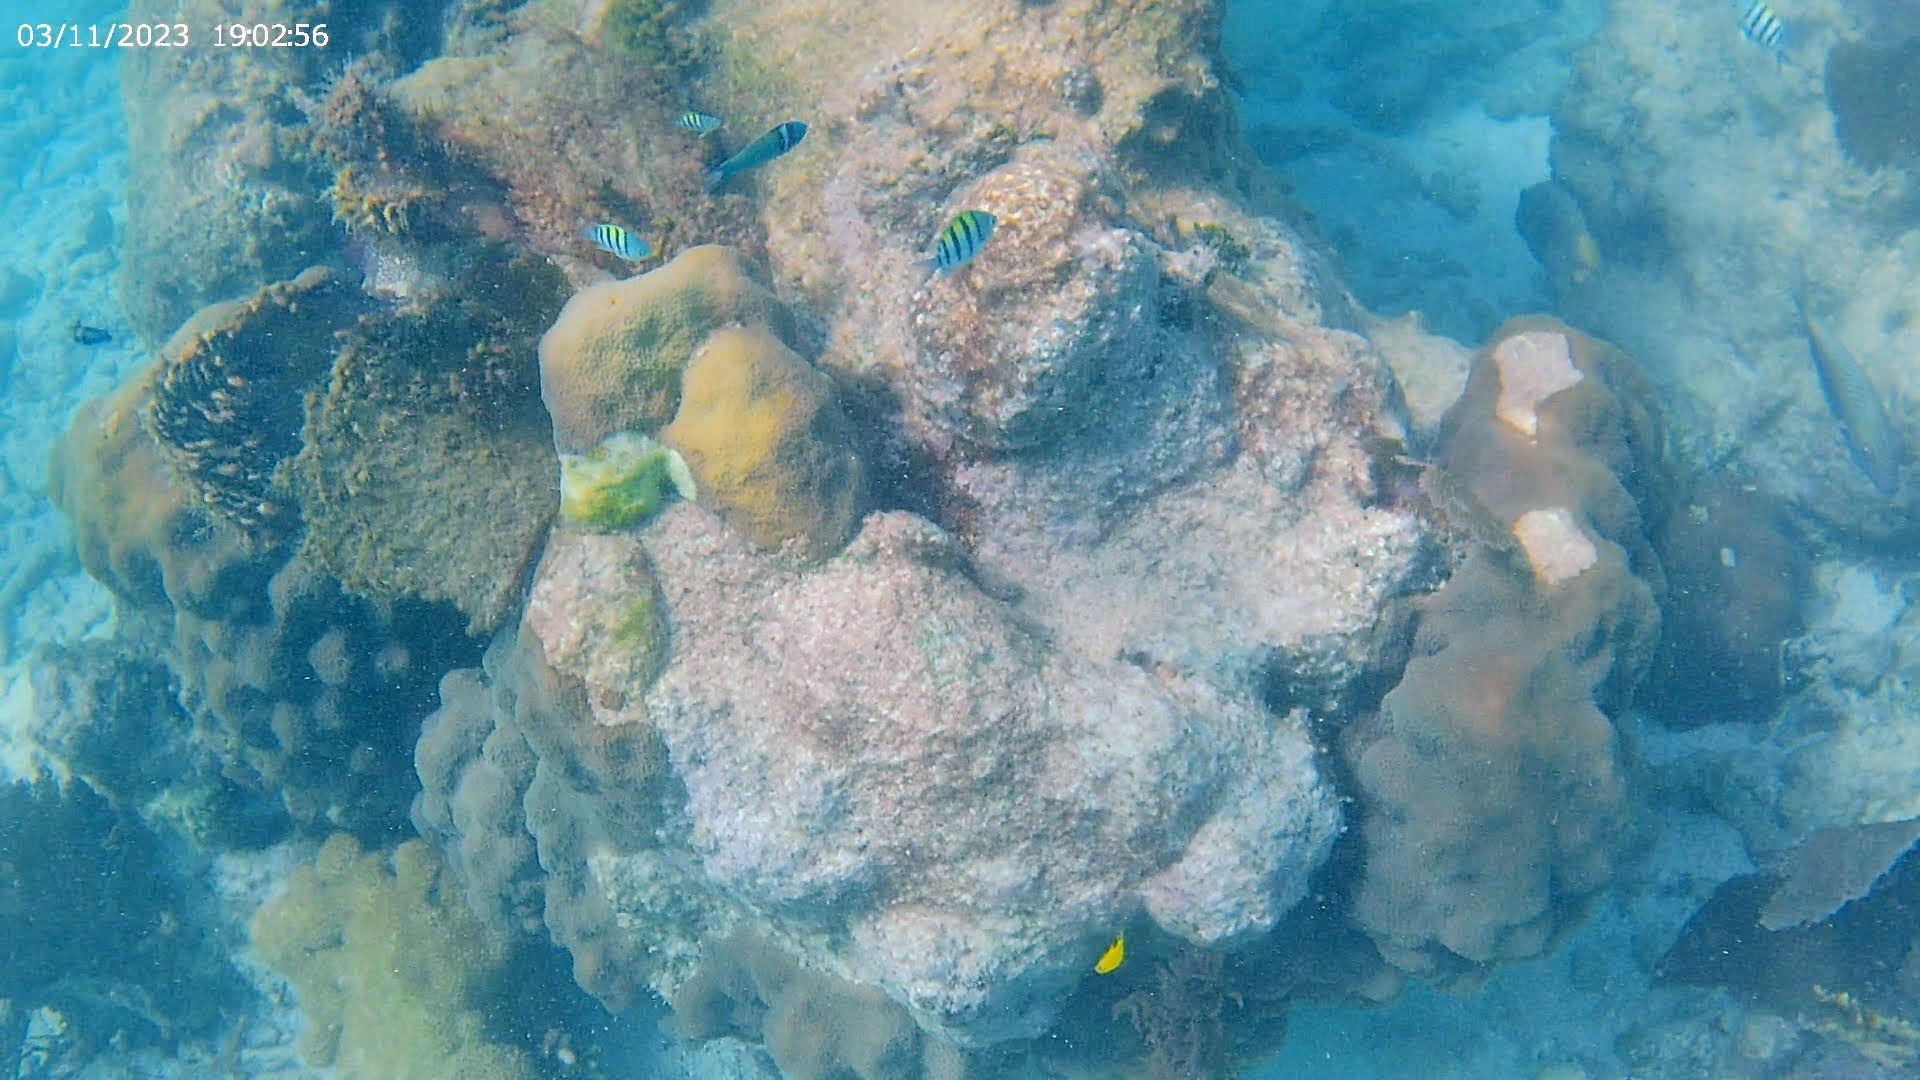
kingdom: Animalia
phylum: Chordata
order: Perciformes
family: Labridae
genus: Thalassoma
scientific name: Thalassoma bifasciatum
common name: Bluehead wrasse
